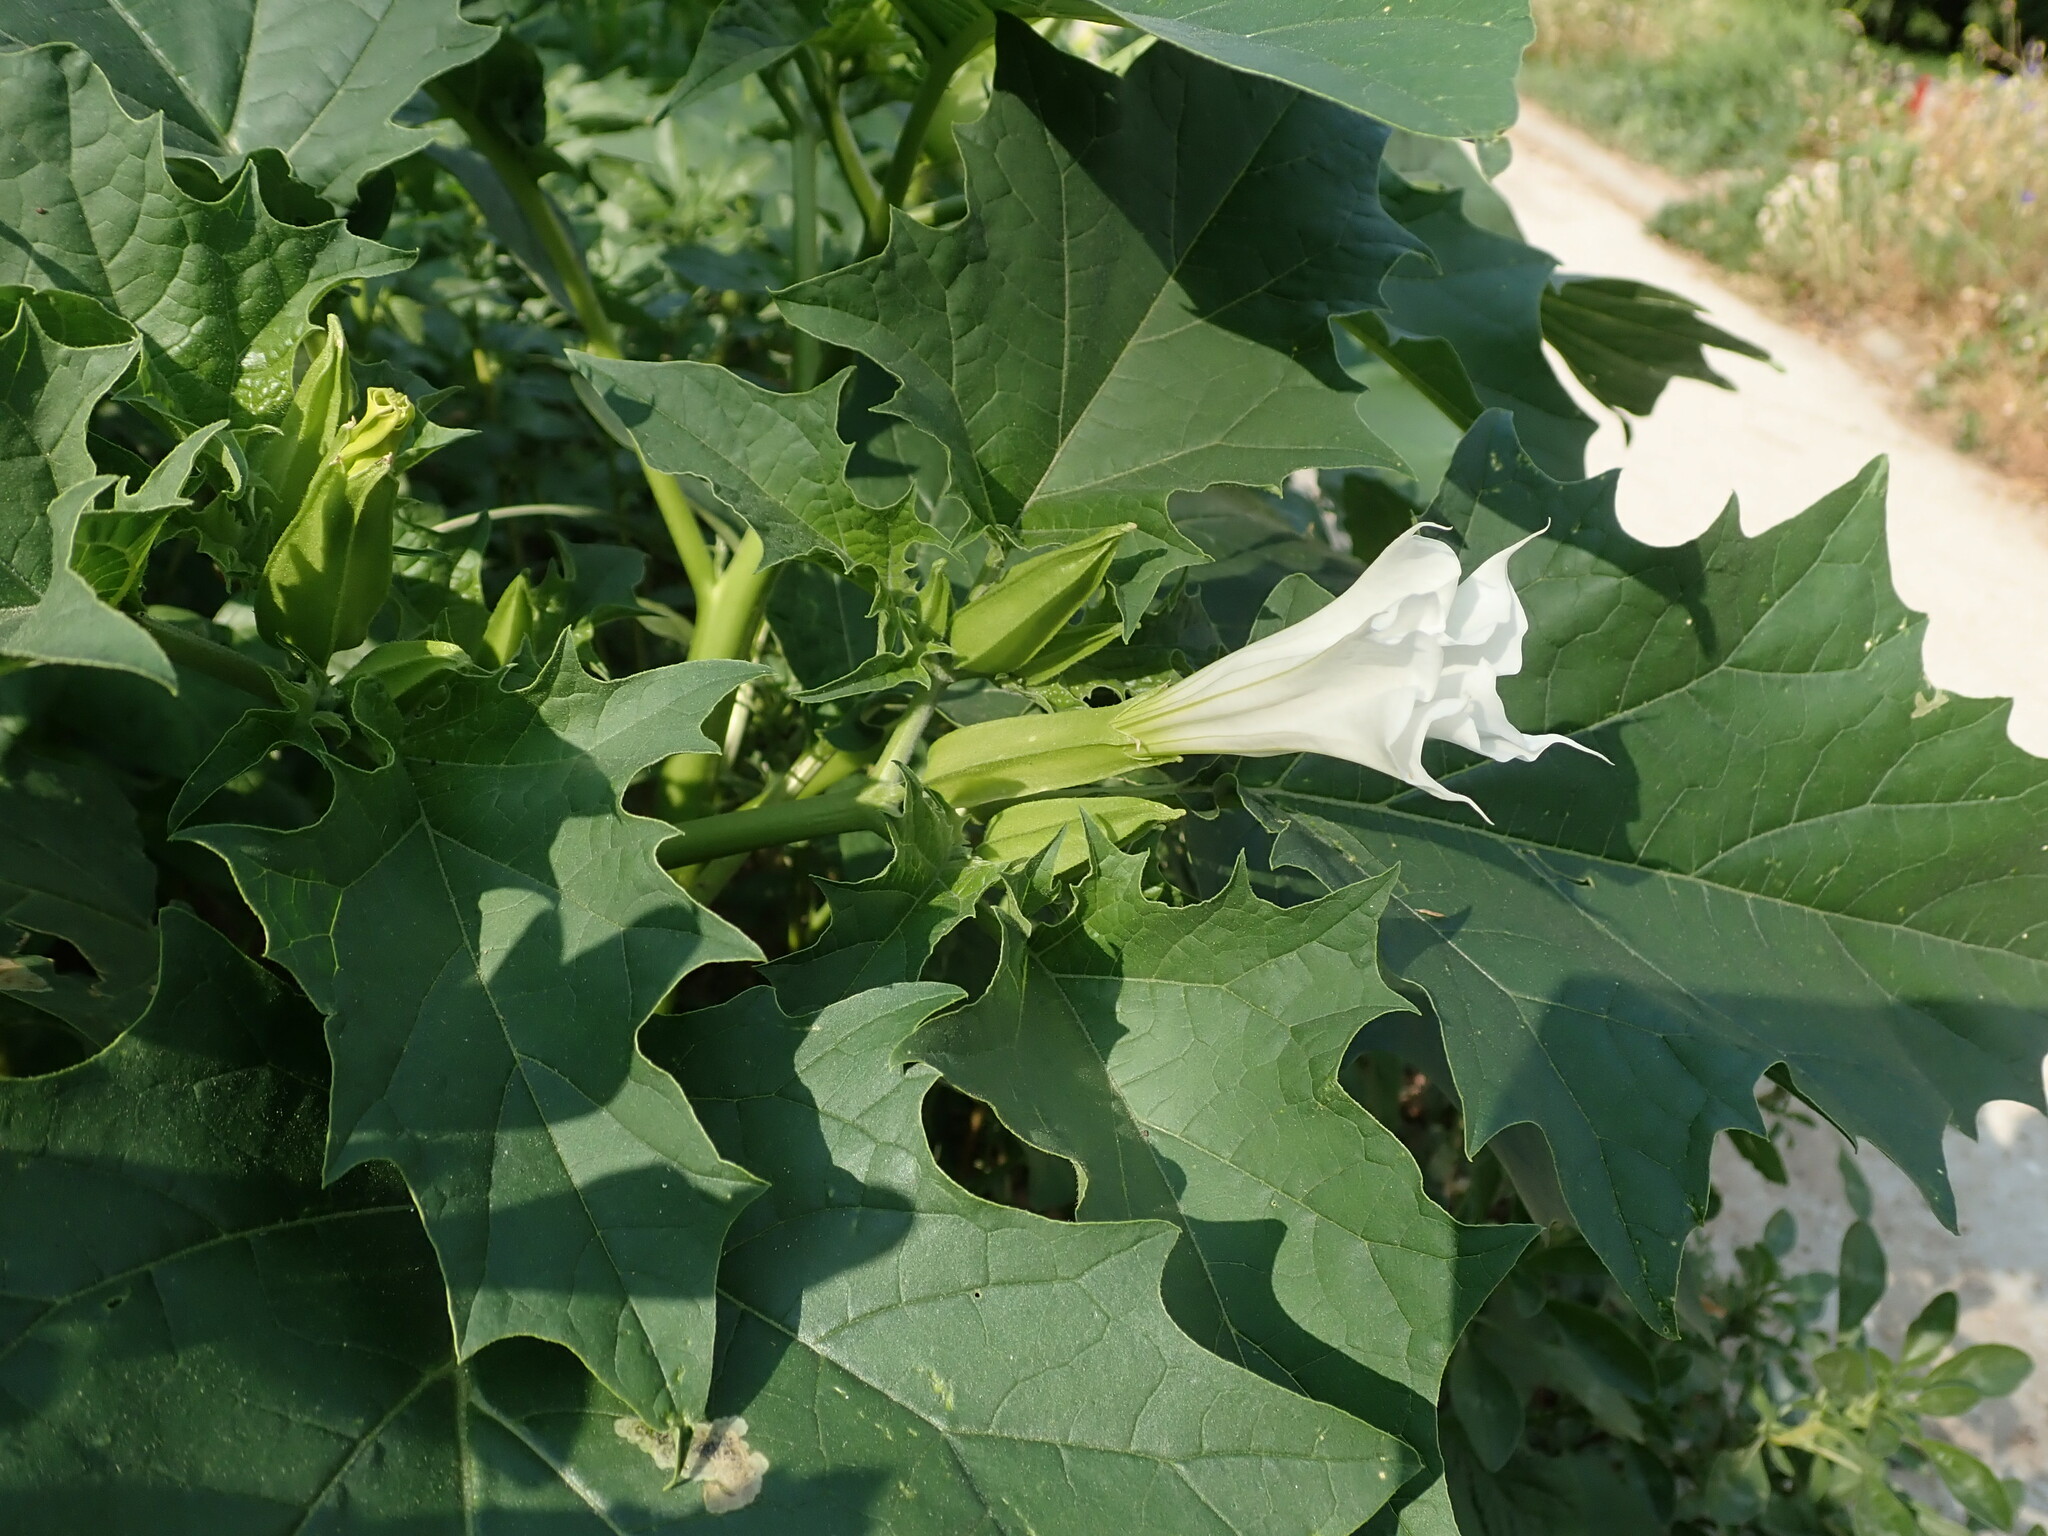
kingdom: Plantae
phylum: Tracheophyta
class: Magnoliopsida
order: Solanales
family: Solanaceae
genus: Datura
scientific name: Datura stramonium
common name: Thorn-apple
